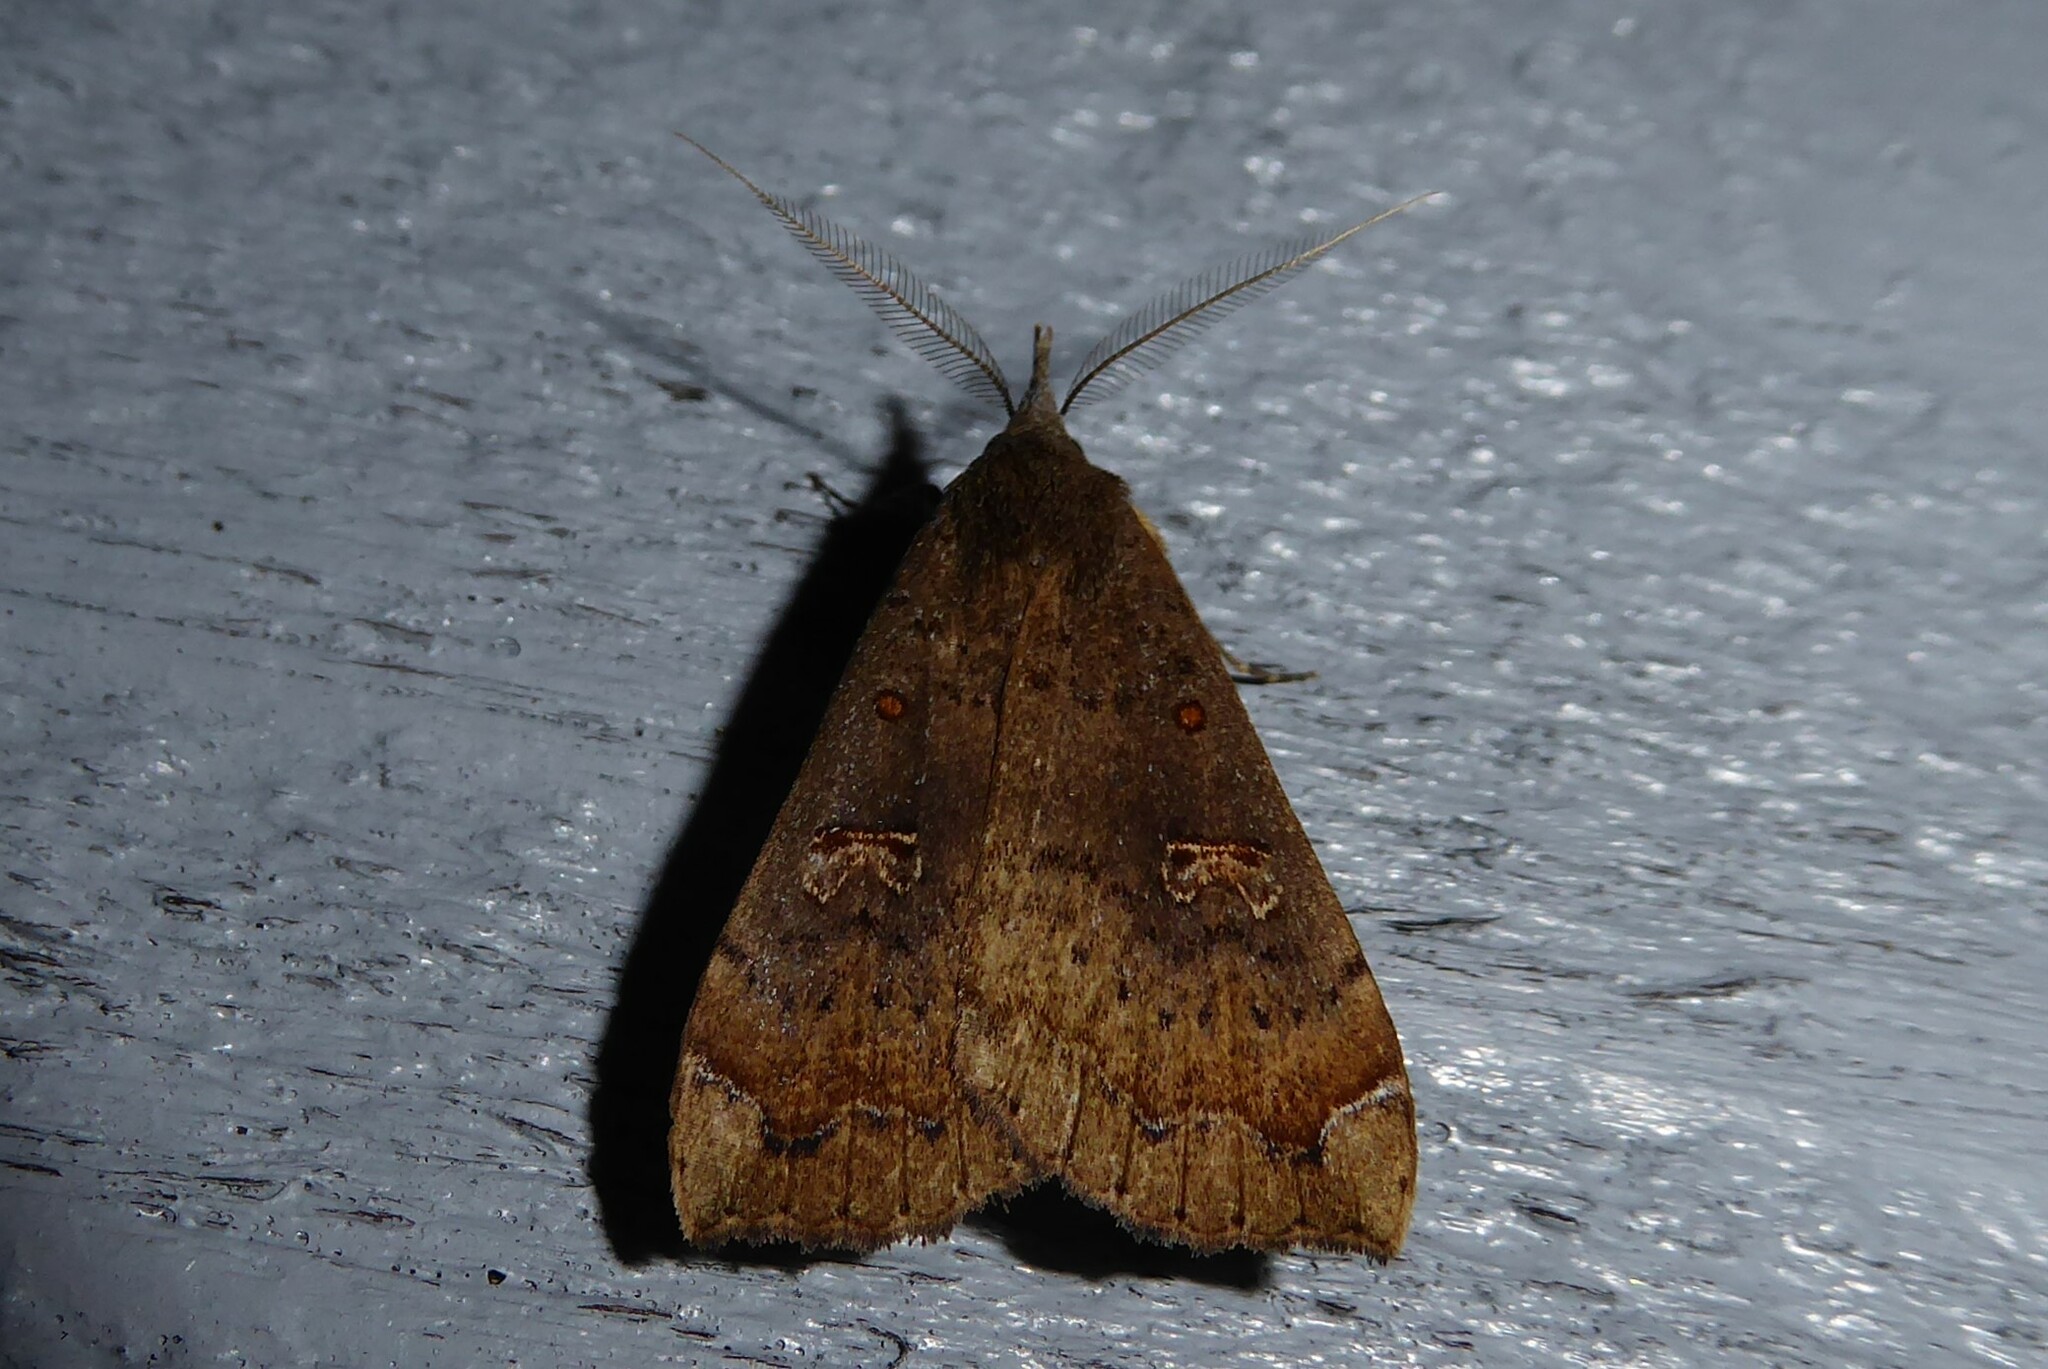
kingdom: Animalia
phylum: Arthropoda
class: Insecta
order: Lepidoptera
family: Erebidae
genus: Rhapsa
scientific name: Rhapsa scotosialis
